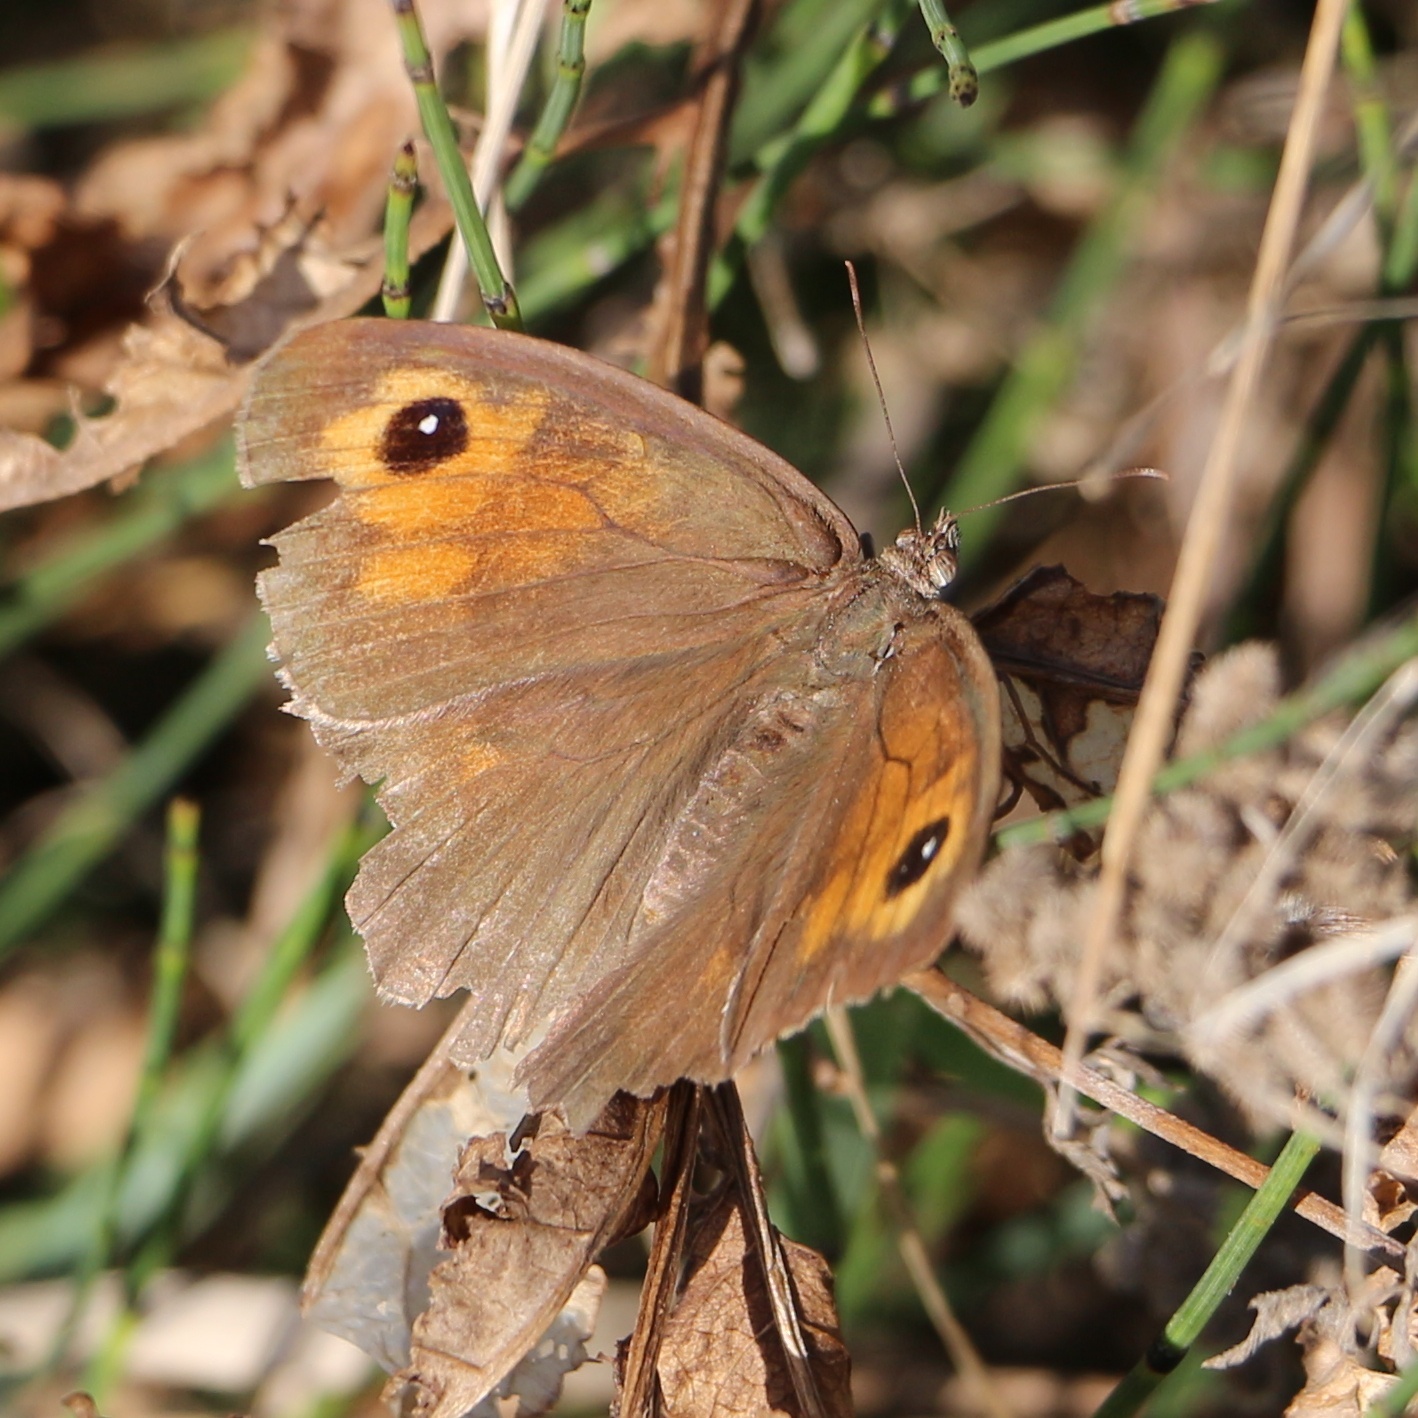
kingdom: Animalia
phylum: Arthropoda
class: Insecta
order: Lepidoptera
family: Nymphalidae
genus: Maniola
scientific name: Maniola jurtina
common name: Meadow brown
